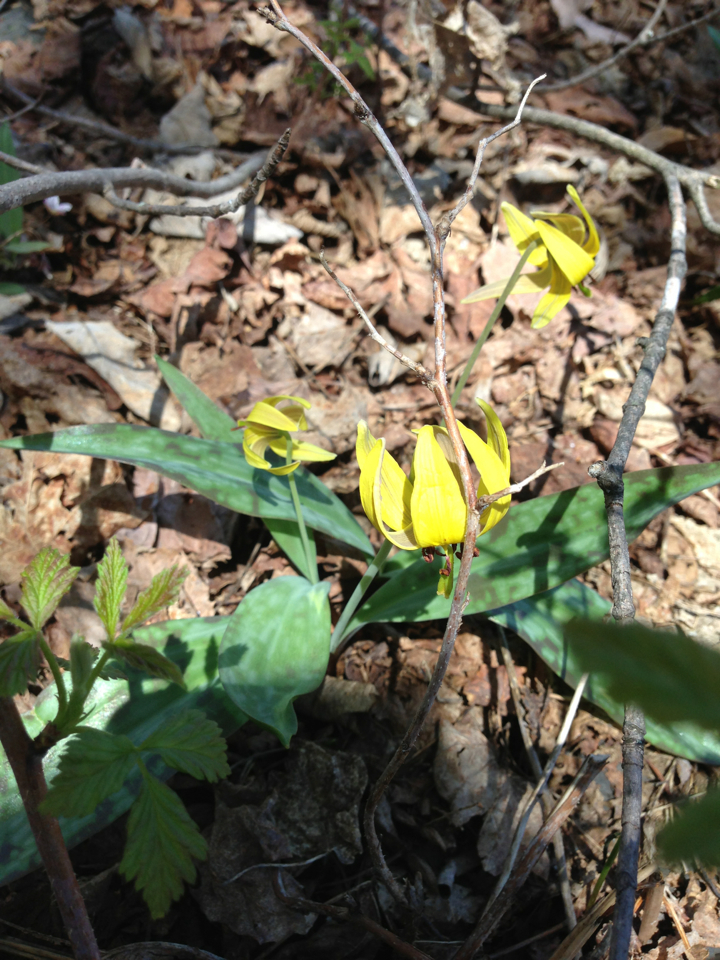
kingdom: Plantae
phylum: Tracheophyta
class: Liliopsida
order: Liliales
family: Liliaceae
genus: Erythronium
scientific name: Erythronium americanum
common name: Yellow adder's-tongue
